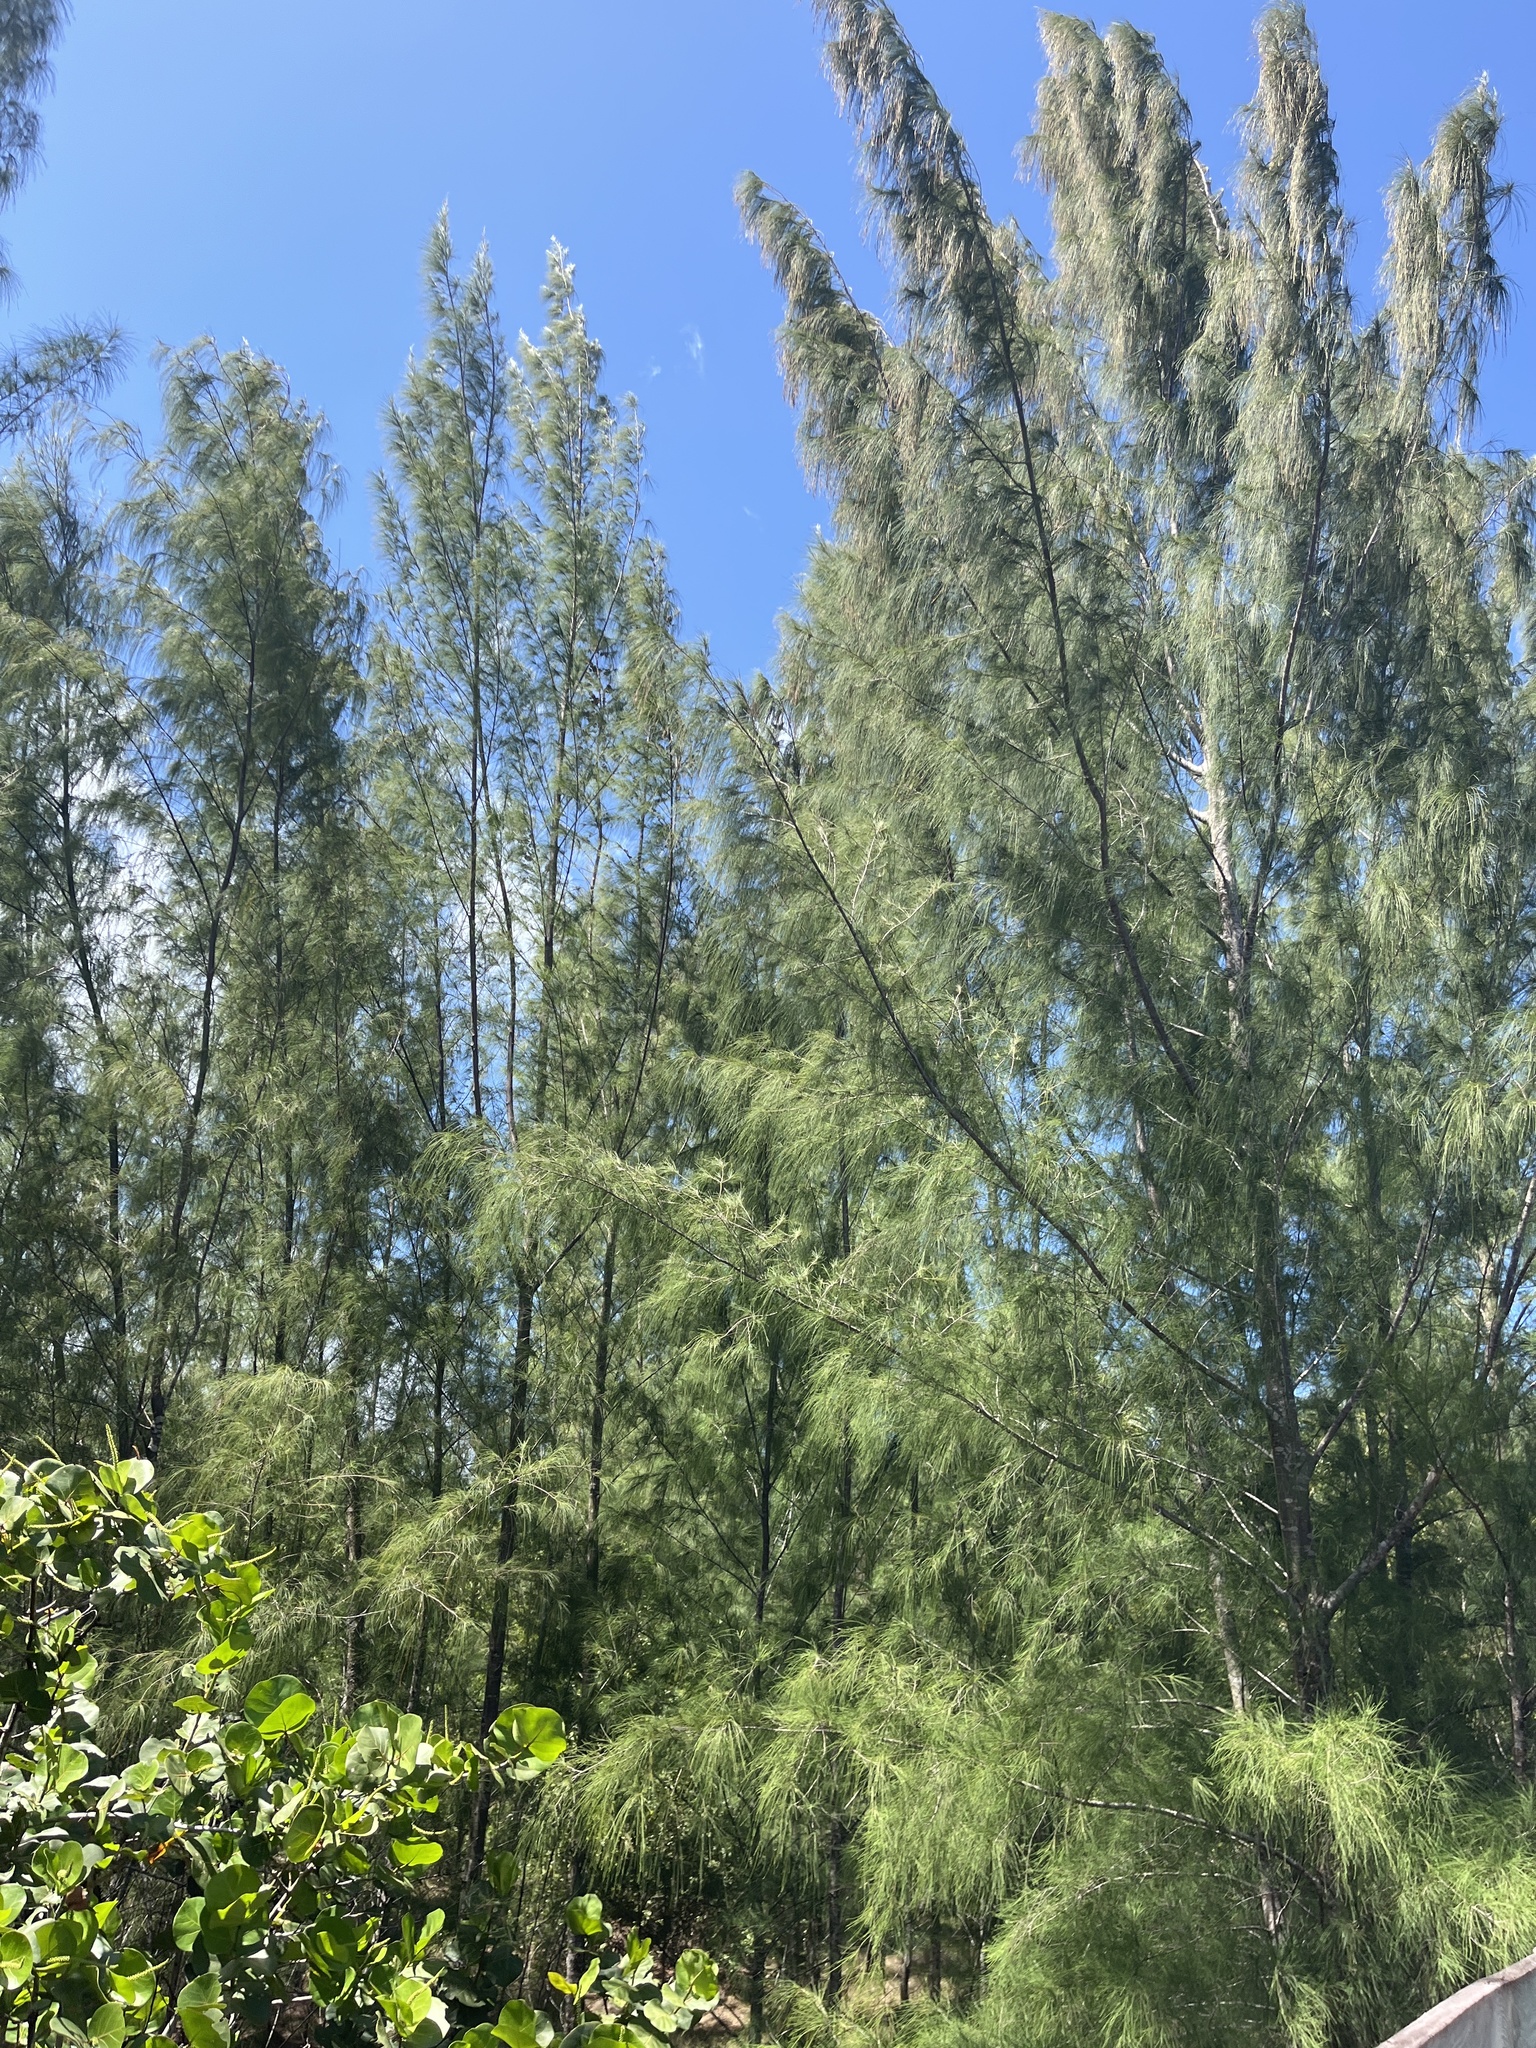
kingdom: Plantae
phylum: Tracheophyta
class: Magnoliopsida
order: Fagales
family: Casuarinaceae
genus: Casuarina
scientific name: Casuarina equisetifolia
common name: Beach sheoak
